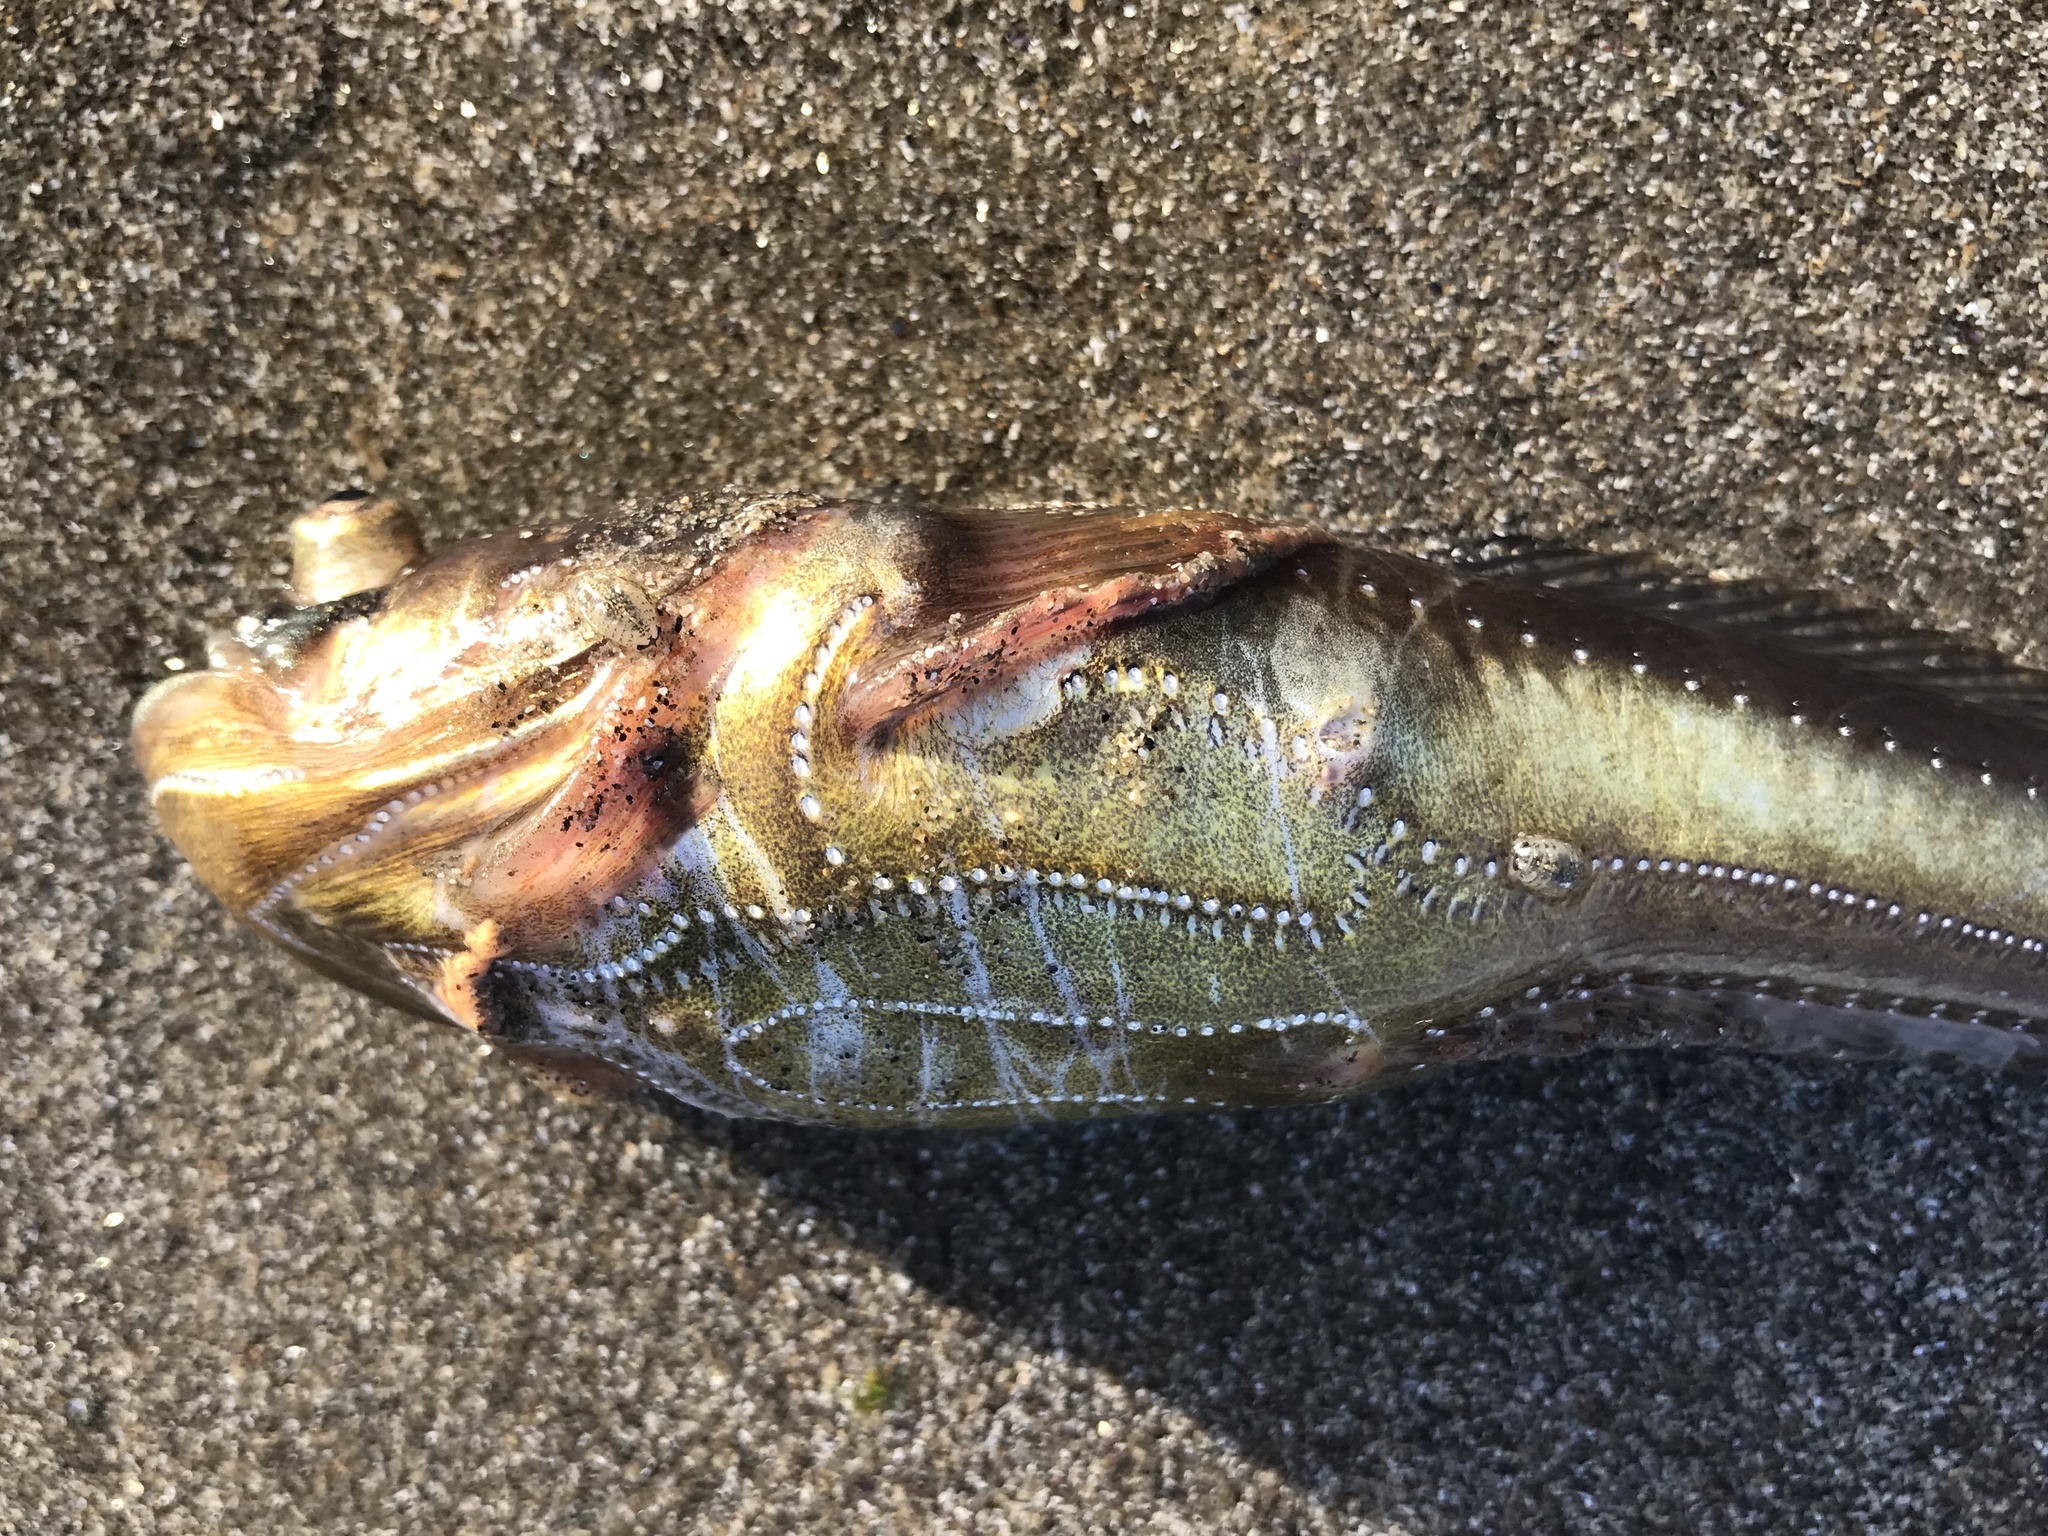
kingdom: Animalia
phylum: Chordata
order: Batrachoidiformes
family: Batrachoididae
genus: Porichthys
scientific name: Porichthys notatus
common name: Plainfin midshipman
